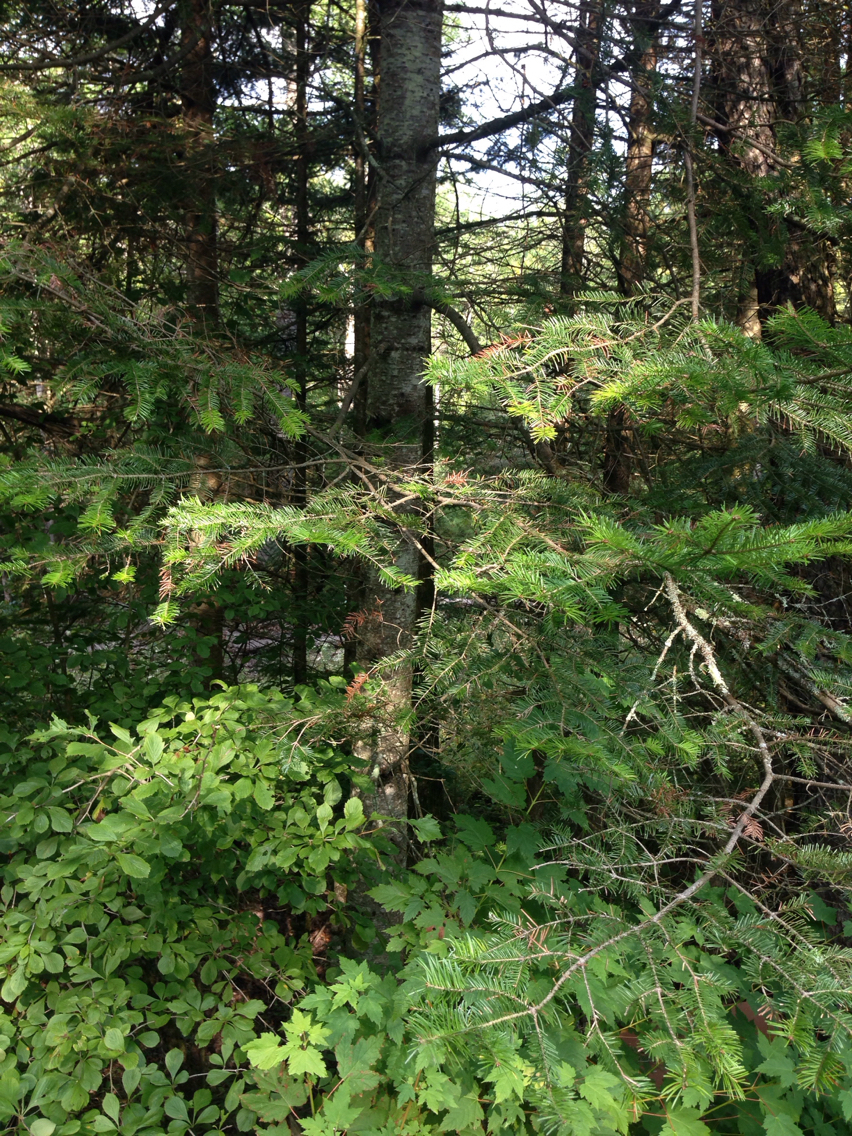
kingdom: Plantae
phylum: Tracheophyta
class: Pinopsida
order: Pinales
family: Pinaceae
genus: Abies
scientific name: Abies balsamea
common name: Balsam fir
